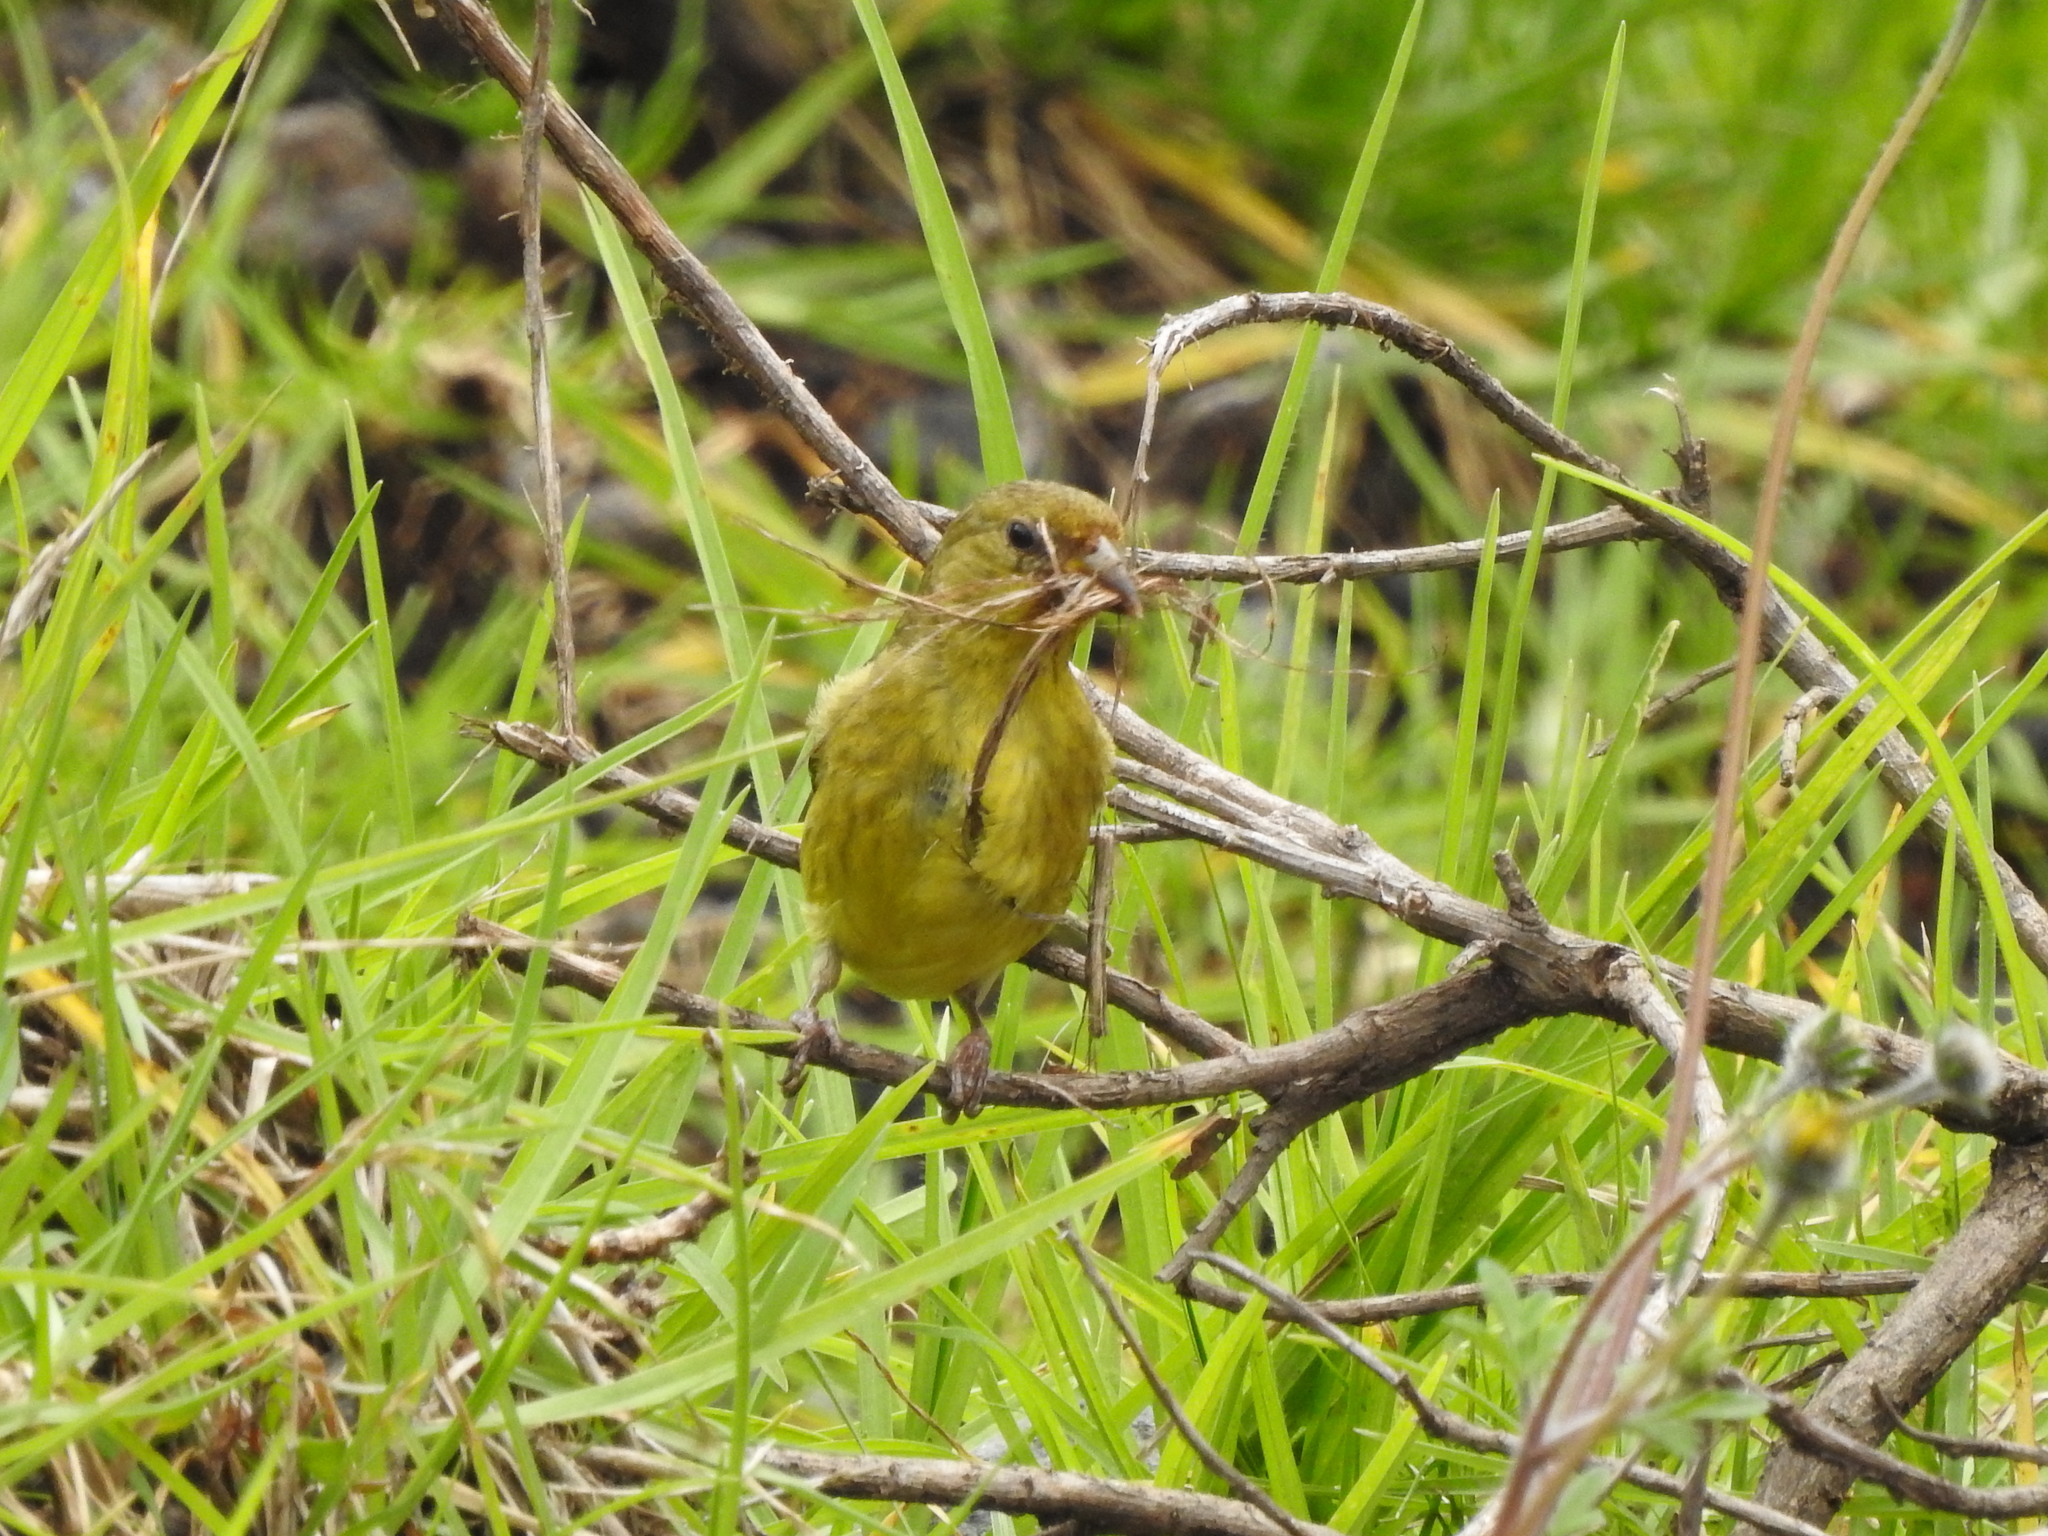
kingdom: Animalia
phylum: Chordata
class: Aves
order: Passeriformes
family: Fringillidae
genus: Spinus
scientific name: Spinus psaltria
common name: Lesser goldfinch
